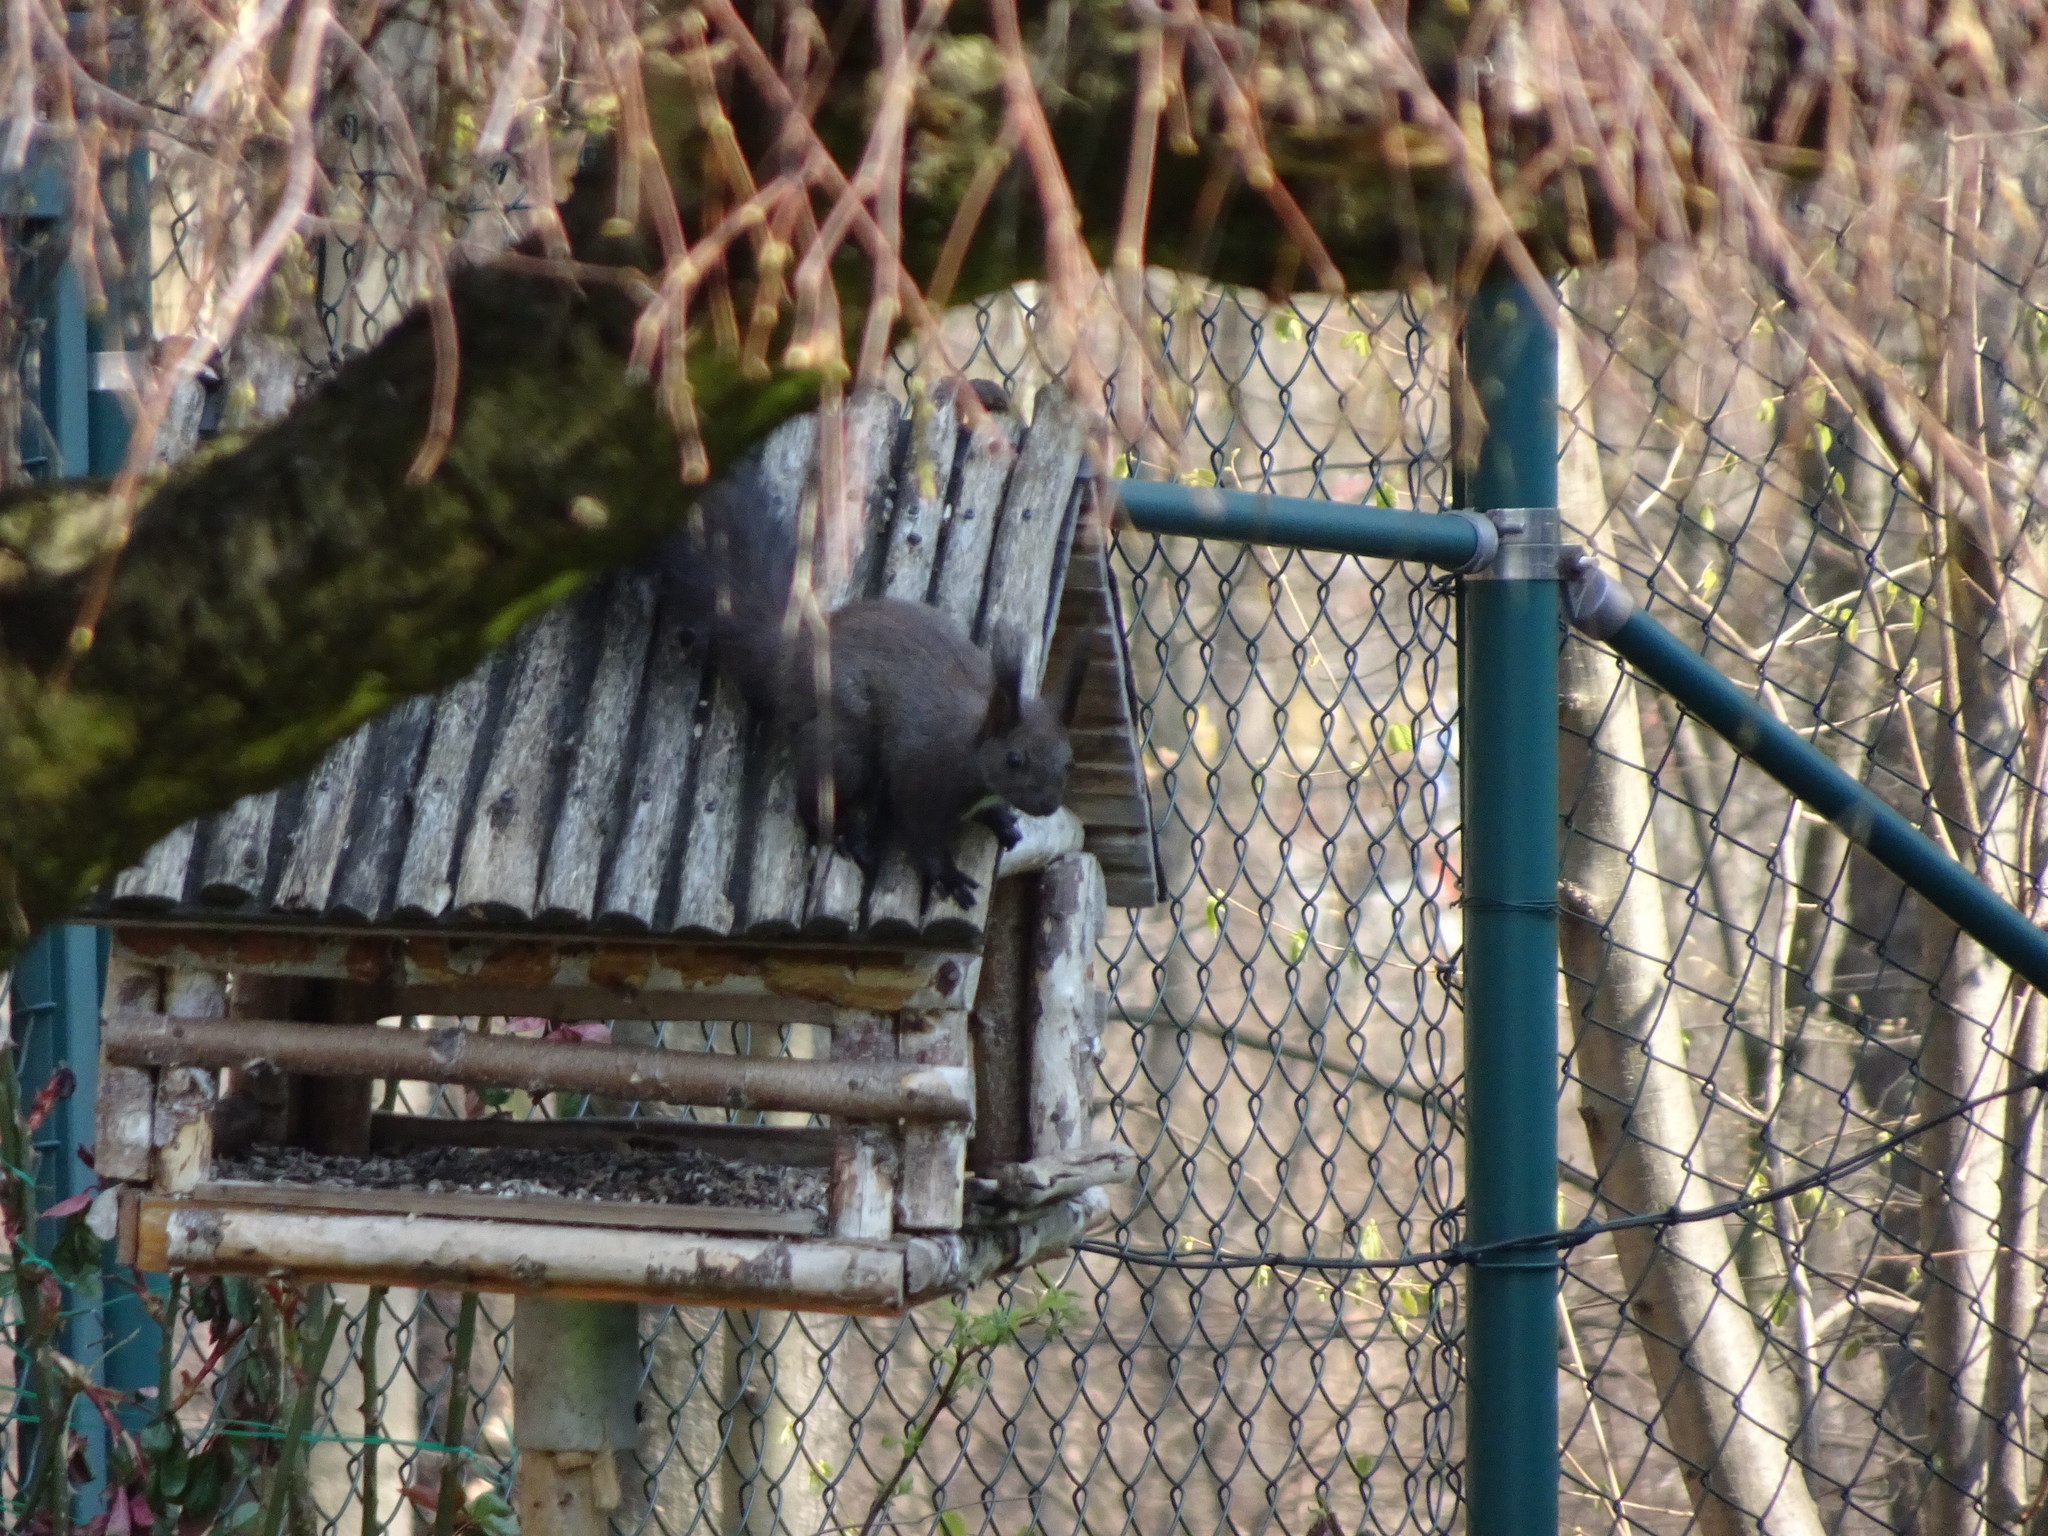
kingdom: Animalia
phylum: Chordata
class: Mammalia
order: Rodentia
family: Sciuridae
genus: Sciurus
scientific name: Sciurus vulgaris
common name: Eurasian red squirrel
